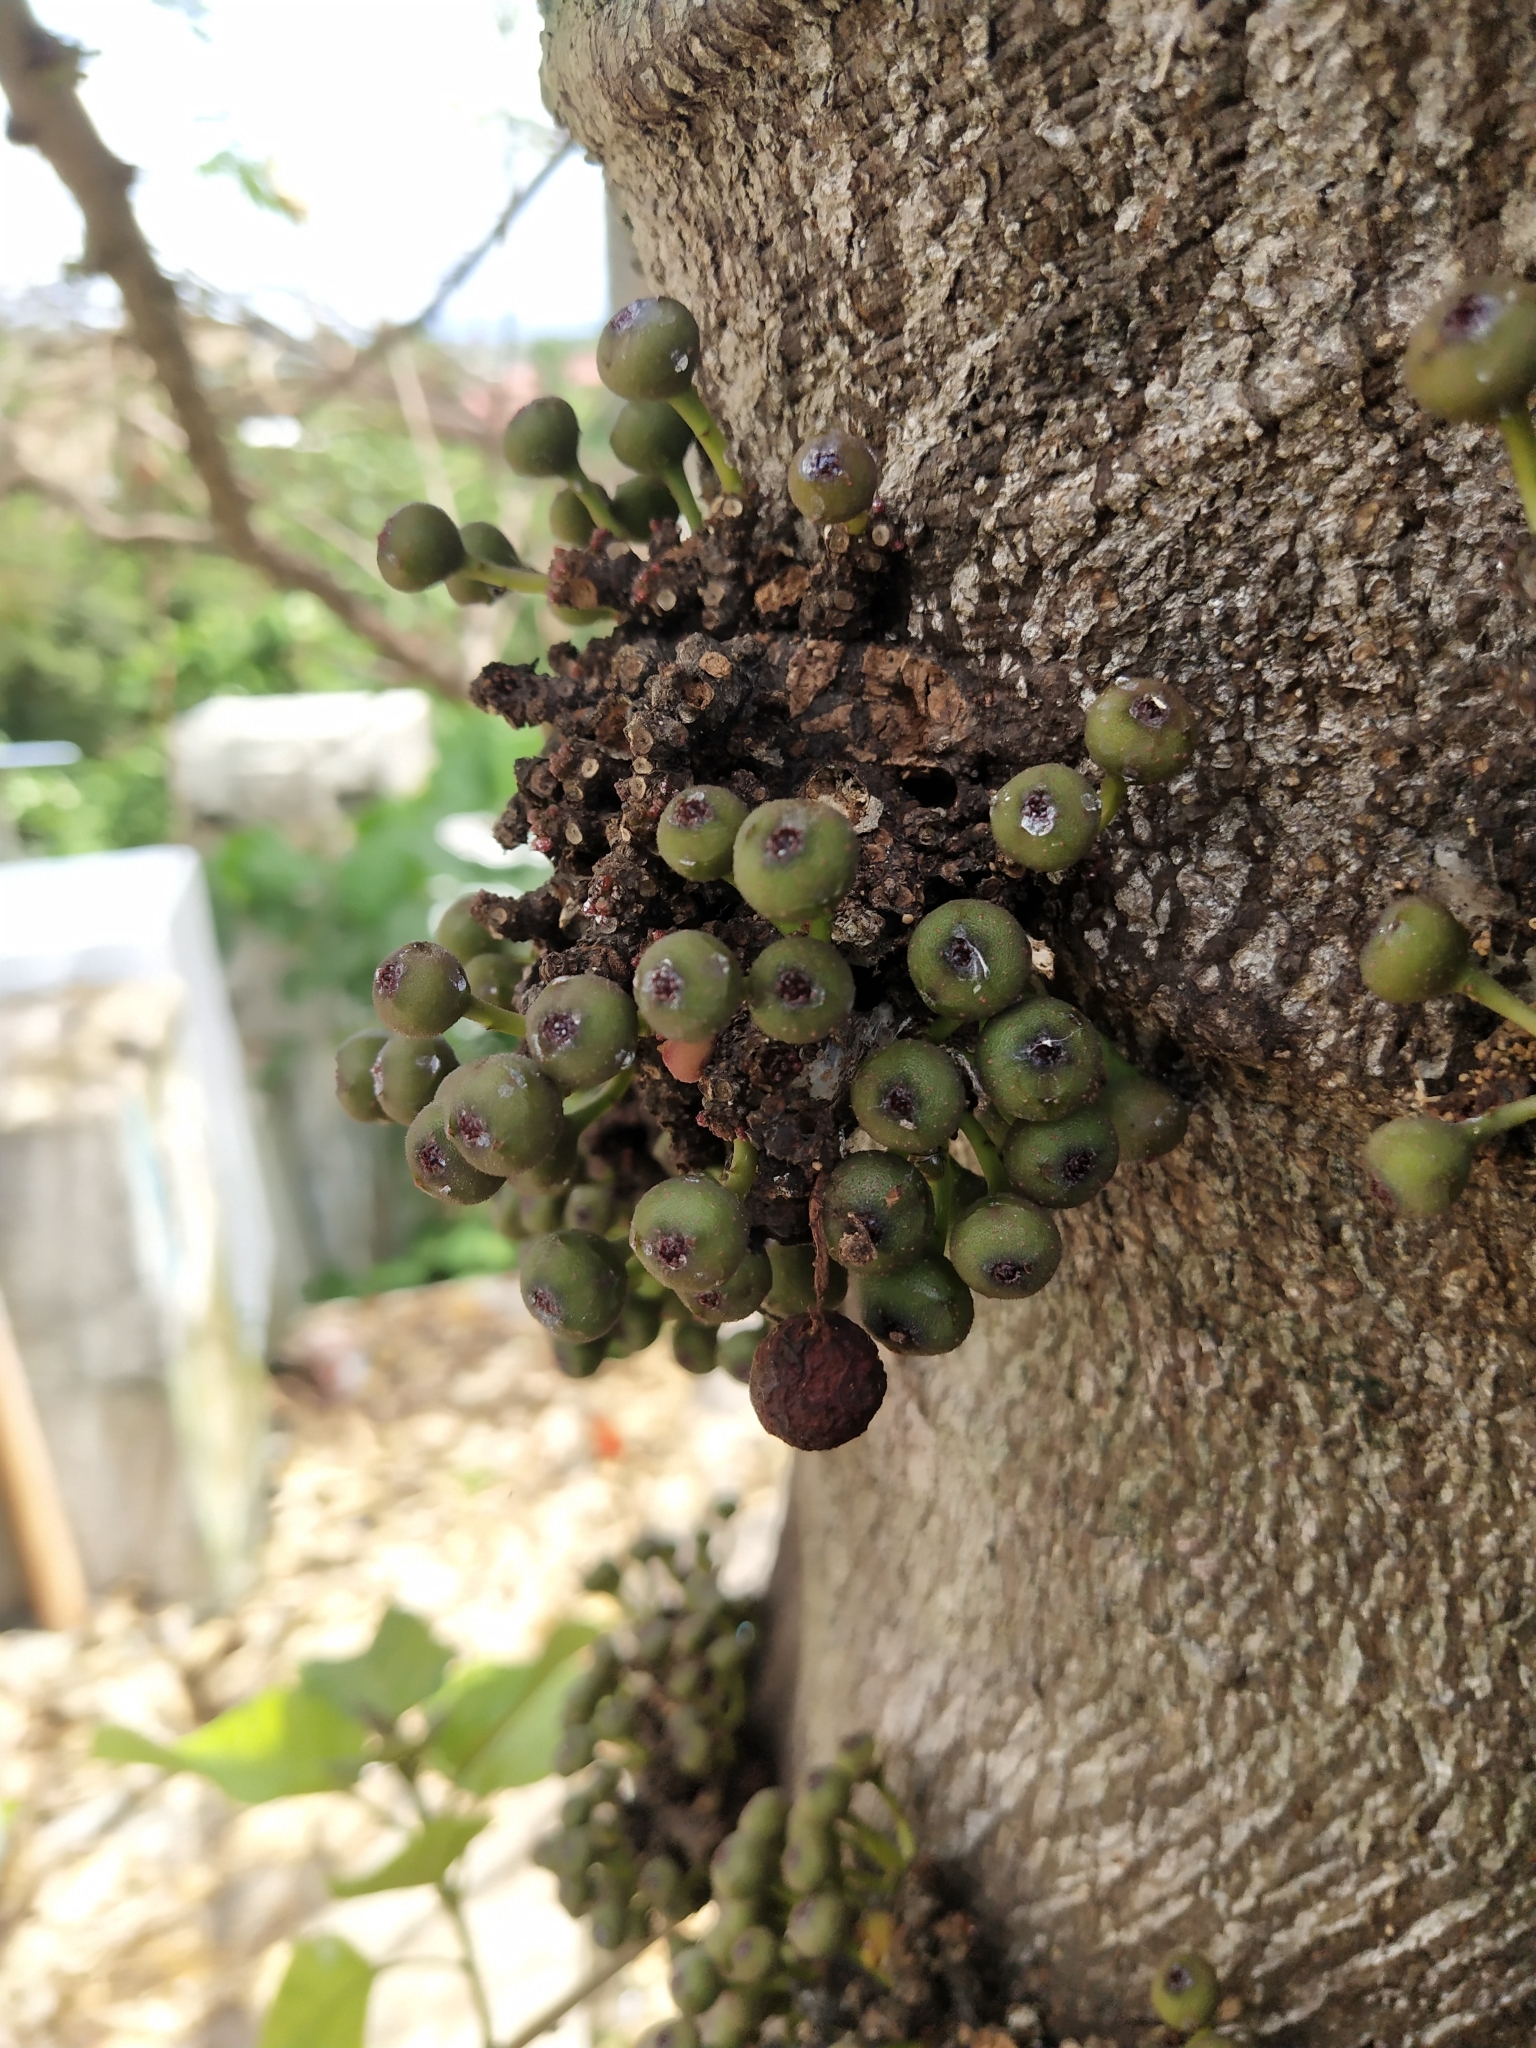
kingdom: Plantae
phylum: Tracheophyta
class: Magnoliopsida
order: Rosales
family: Moraceae
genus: Ficus
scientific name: Ficus heteropoda
